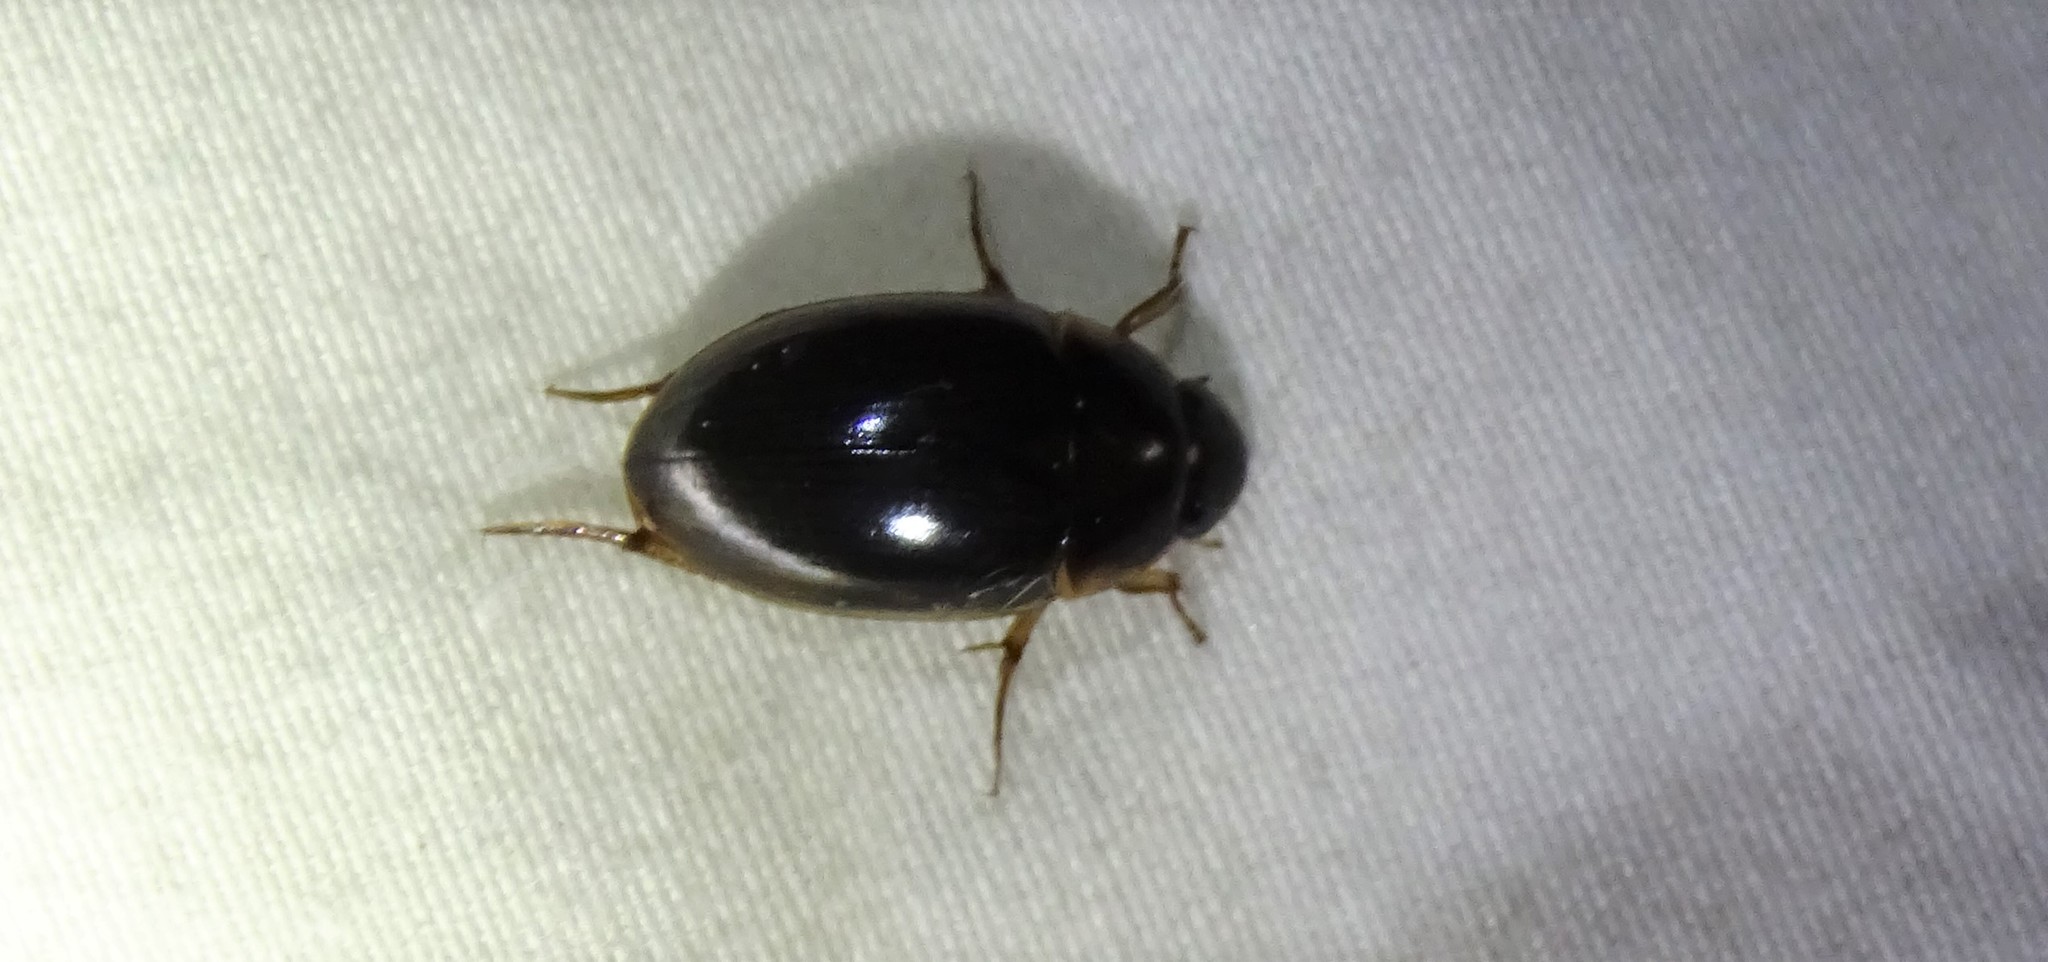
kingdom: Animalia
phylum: Arthropoda
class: Insecta
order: Coleoptera
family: Hydrophilidae
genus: Tropisternus
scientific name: Tropisternus collaris
